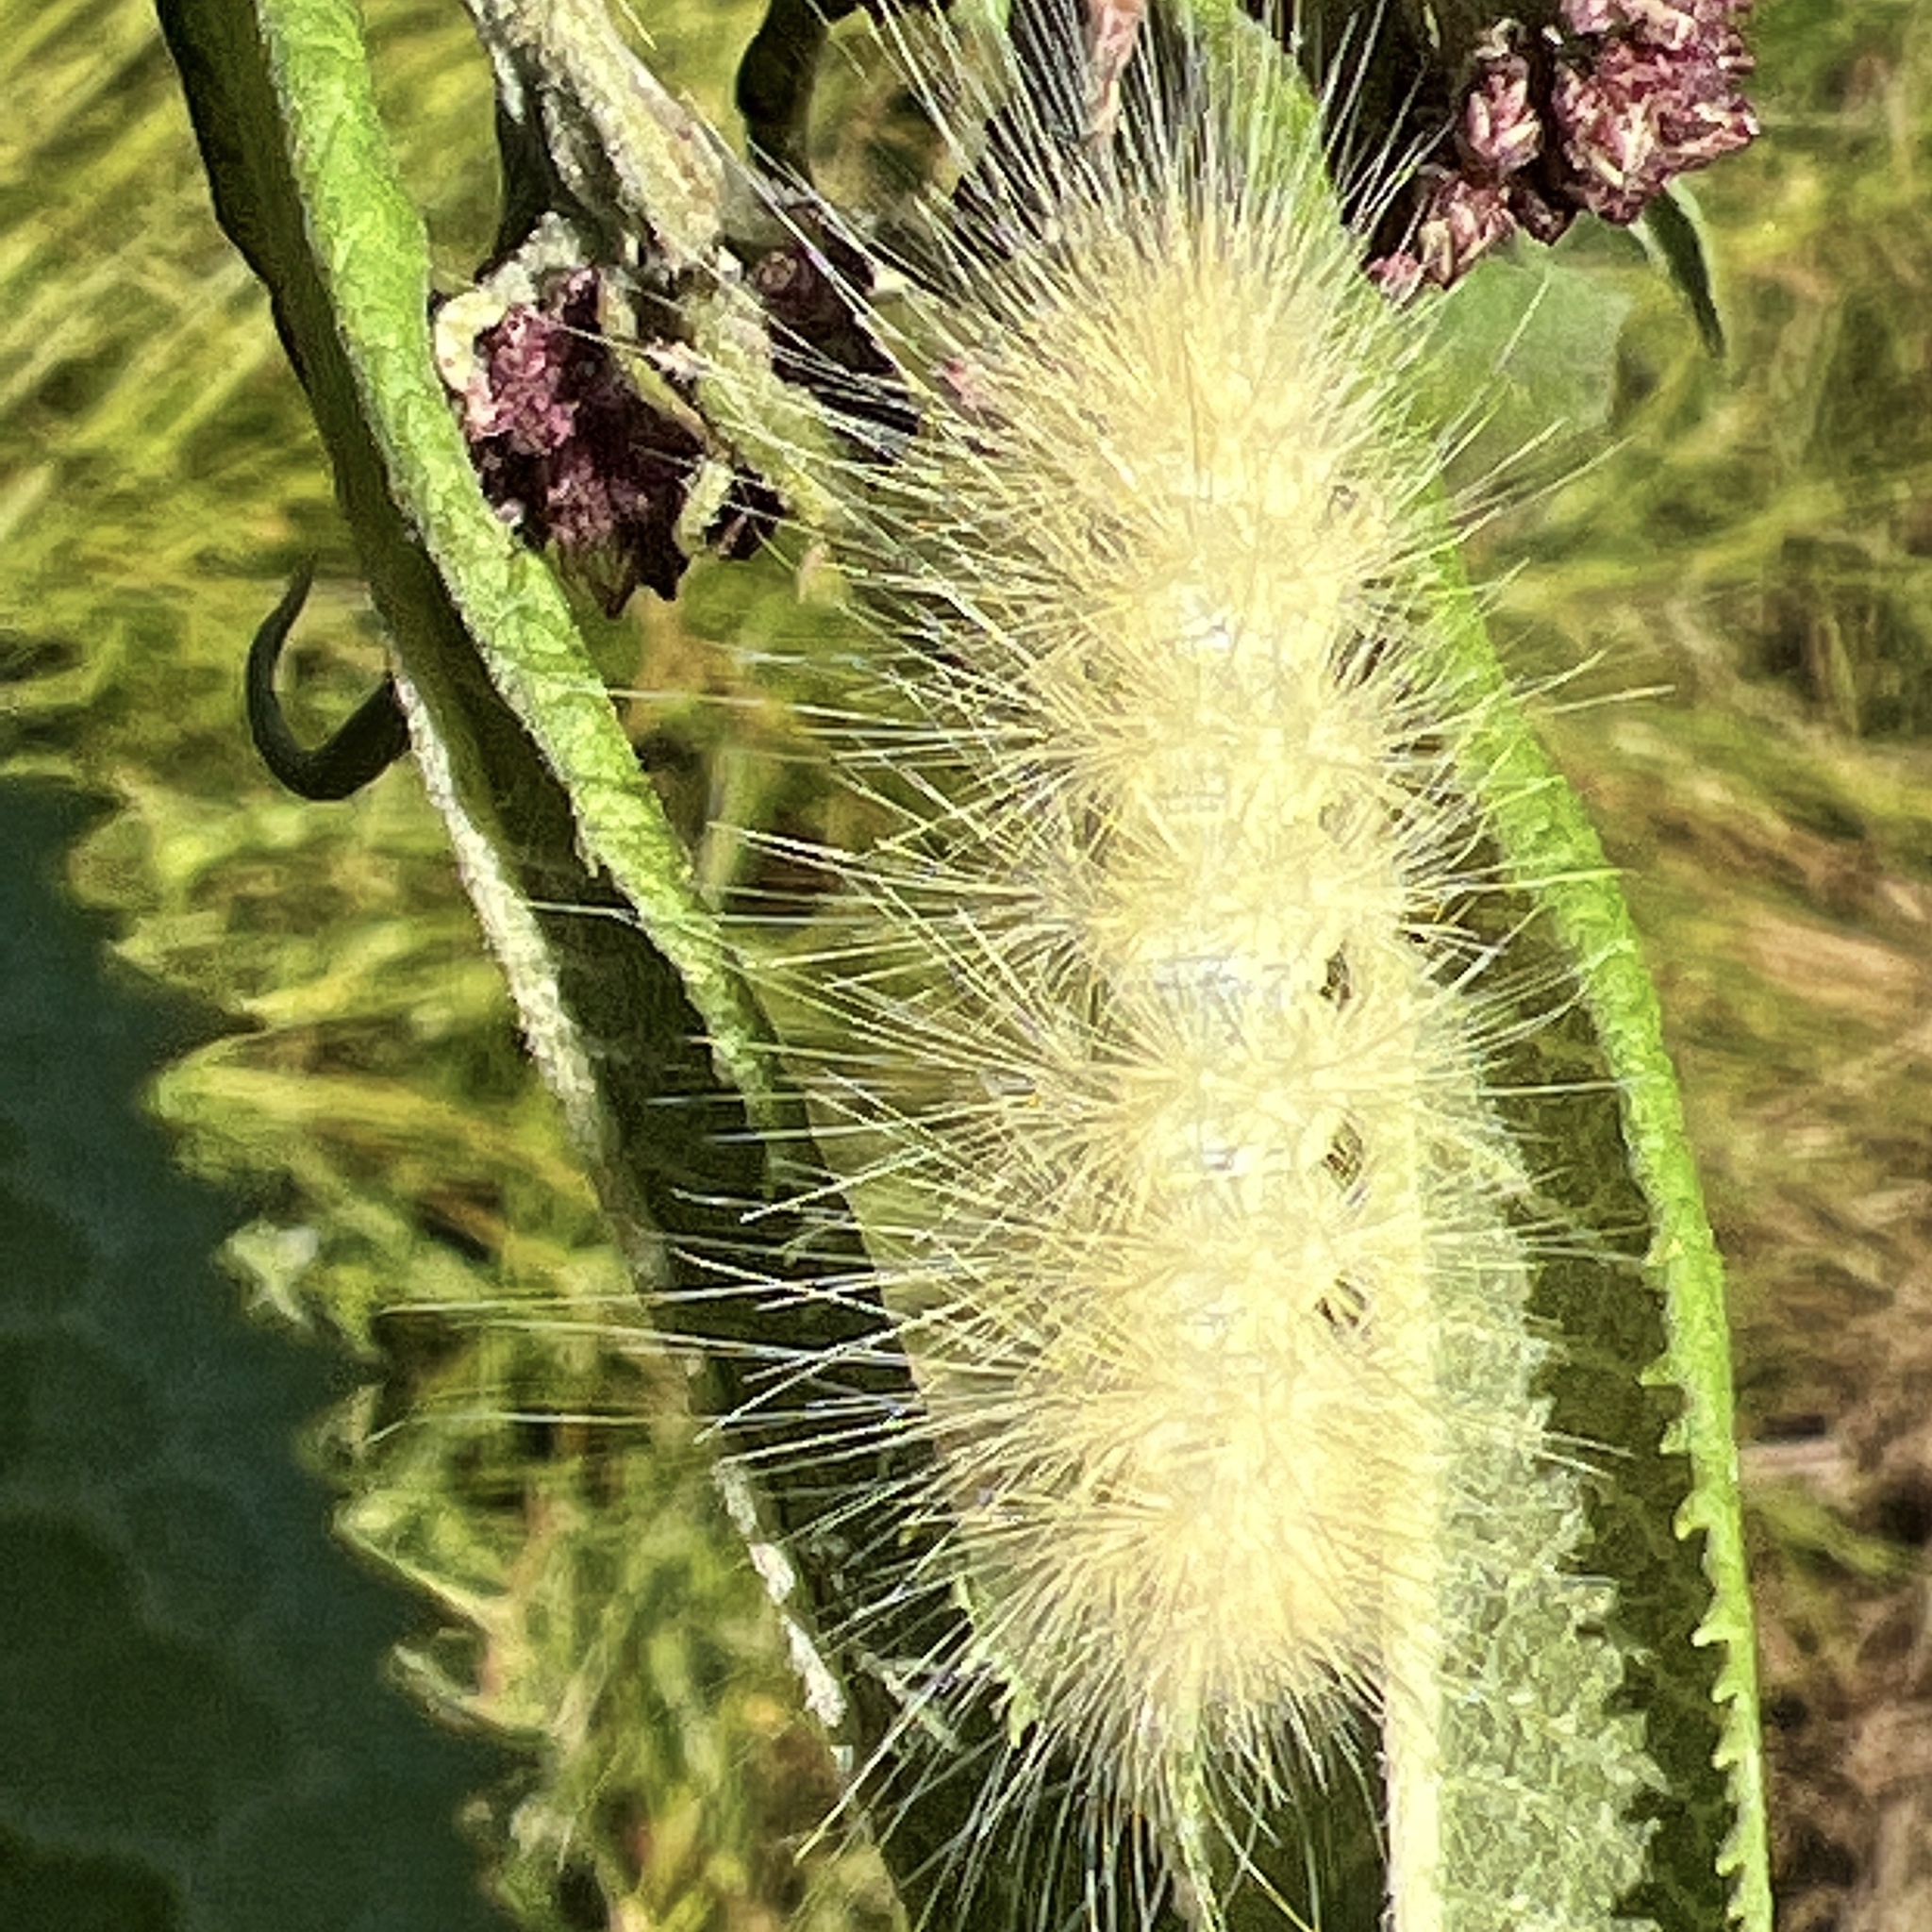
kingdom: Animalia
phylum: Arthropoda
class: Insecta
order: Lepidoptera
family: Erebidae
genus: Spilosoma
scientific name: Spilosoma virginica
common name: Virginia tiger moth
